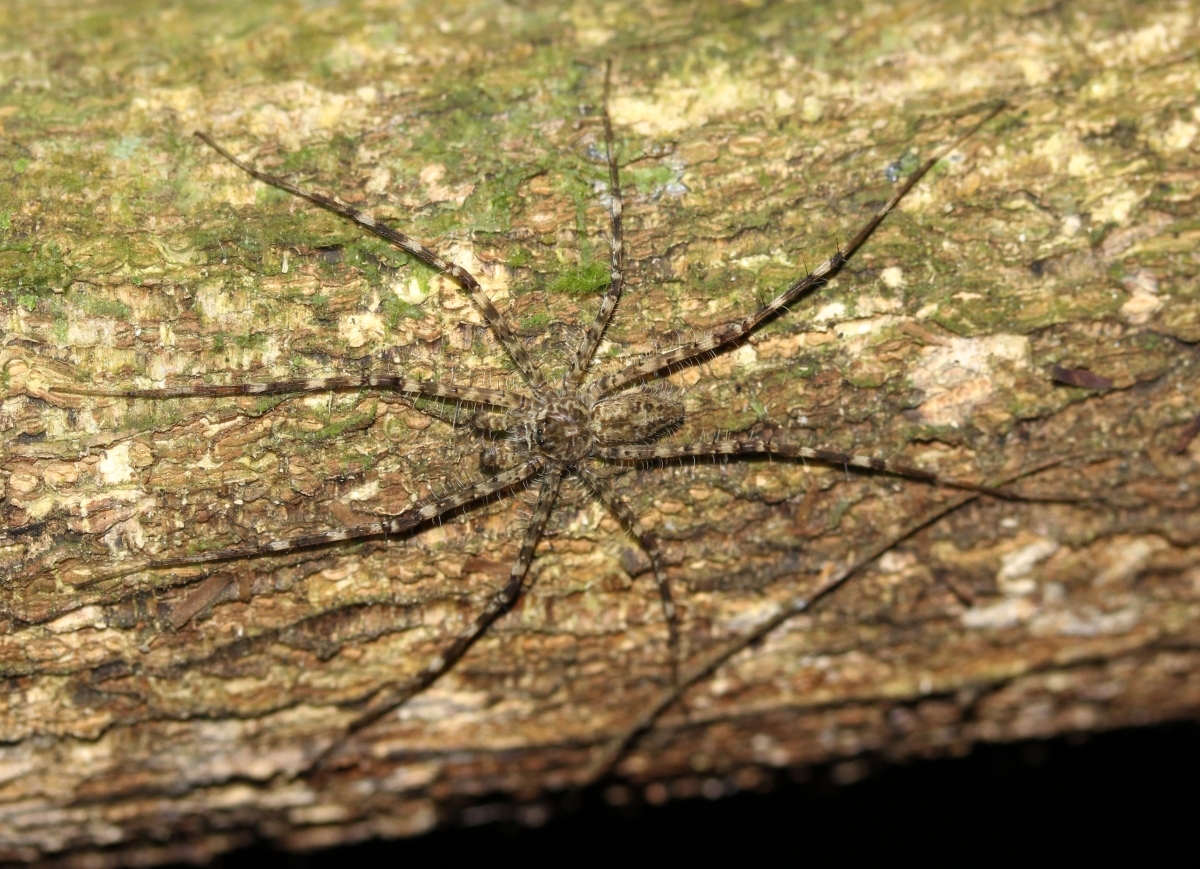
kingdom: Animalia
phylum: Arthropoda
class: Arachnida
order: Araneae
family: Trechaleidae
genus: Syntrechalea
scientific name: Syntrechalea
